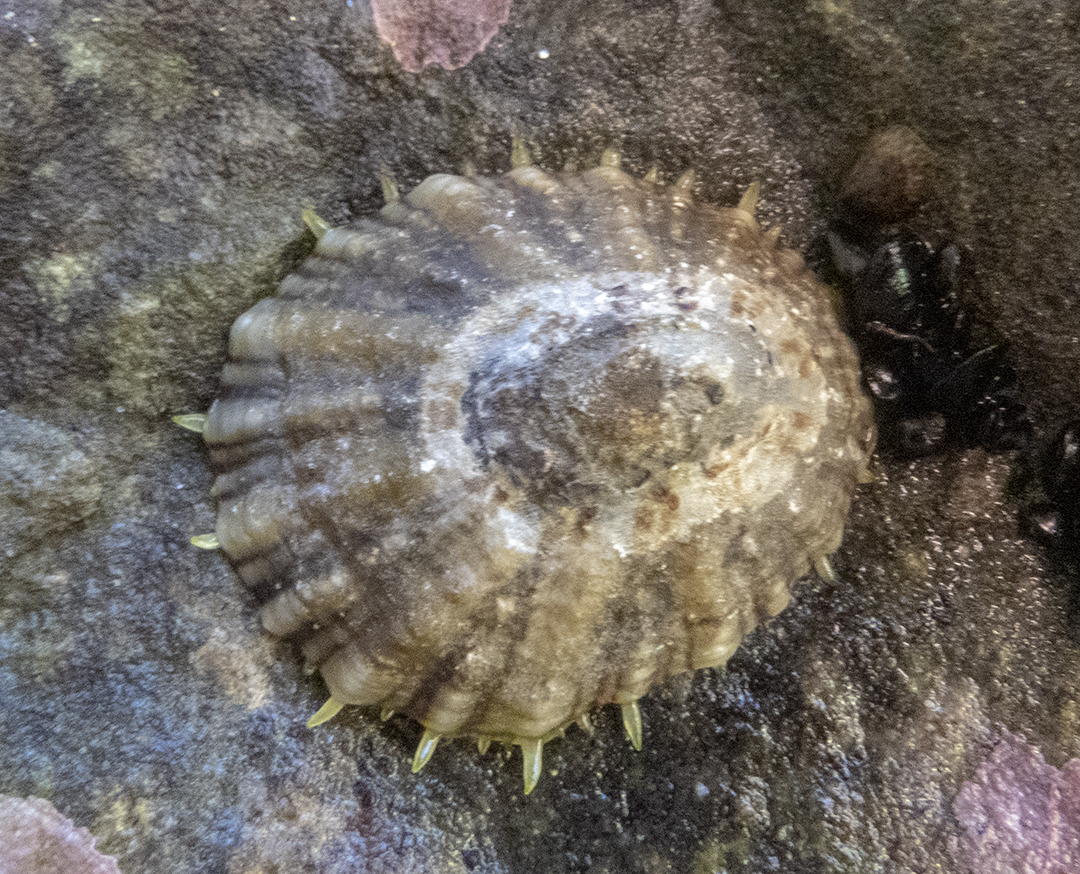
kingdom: Animalia
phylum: Mollusca
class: Gastropoda
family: Nacellidae
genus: Cellana
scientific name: Cellana ornata
